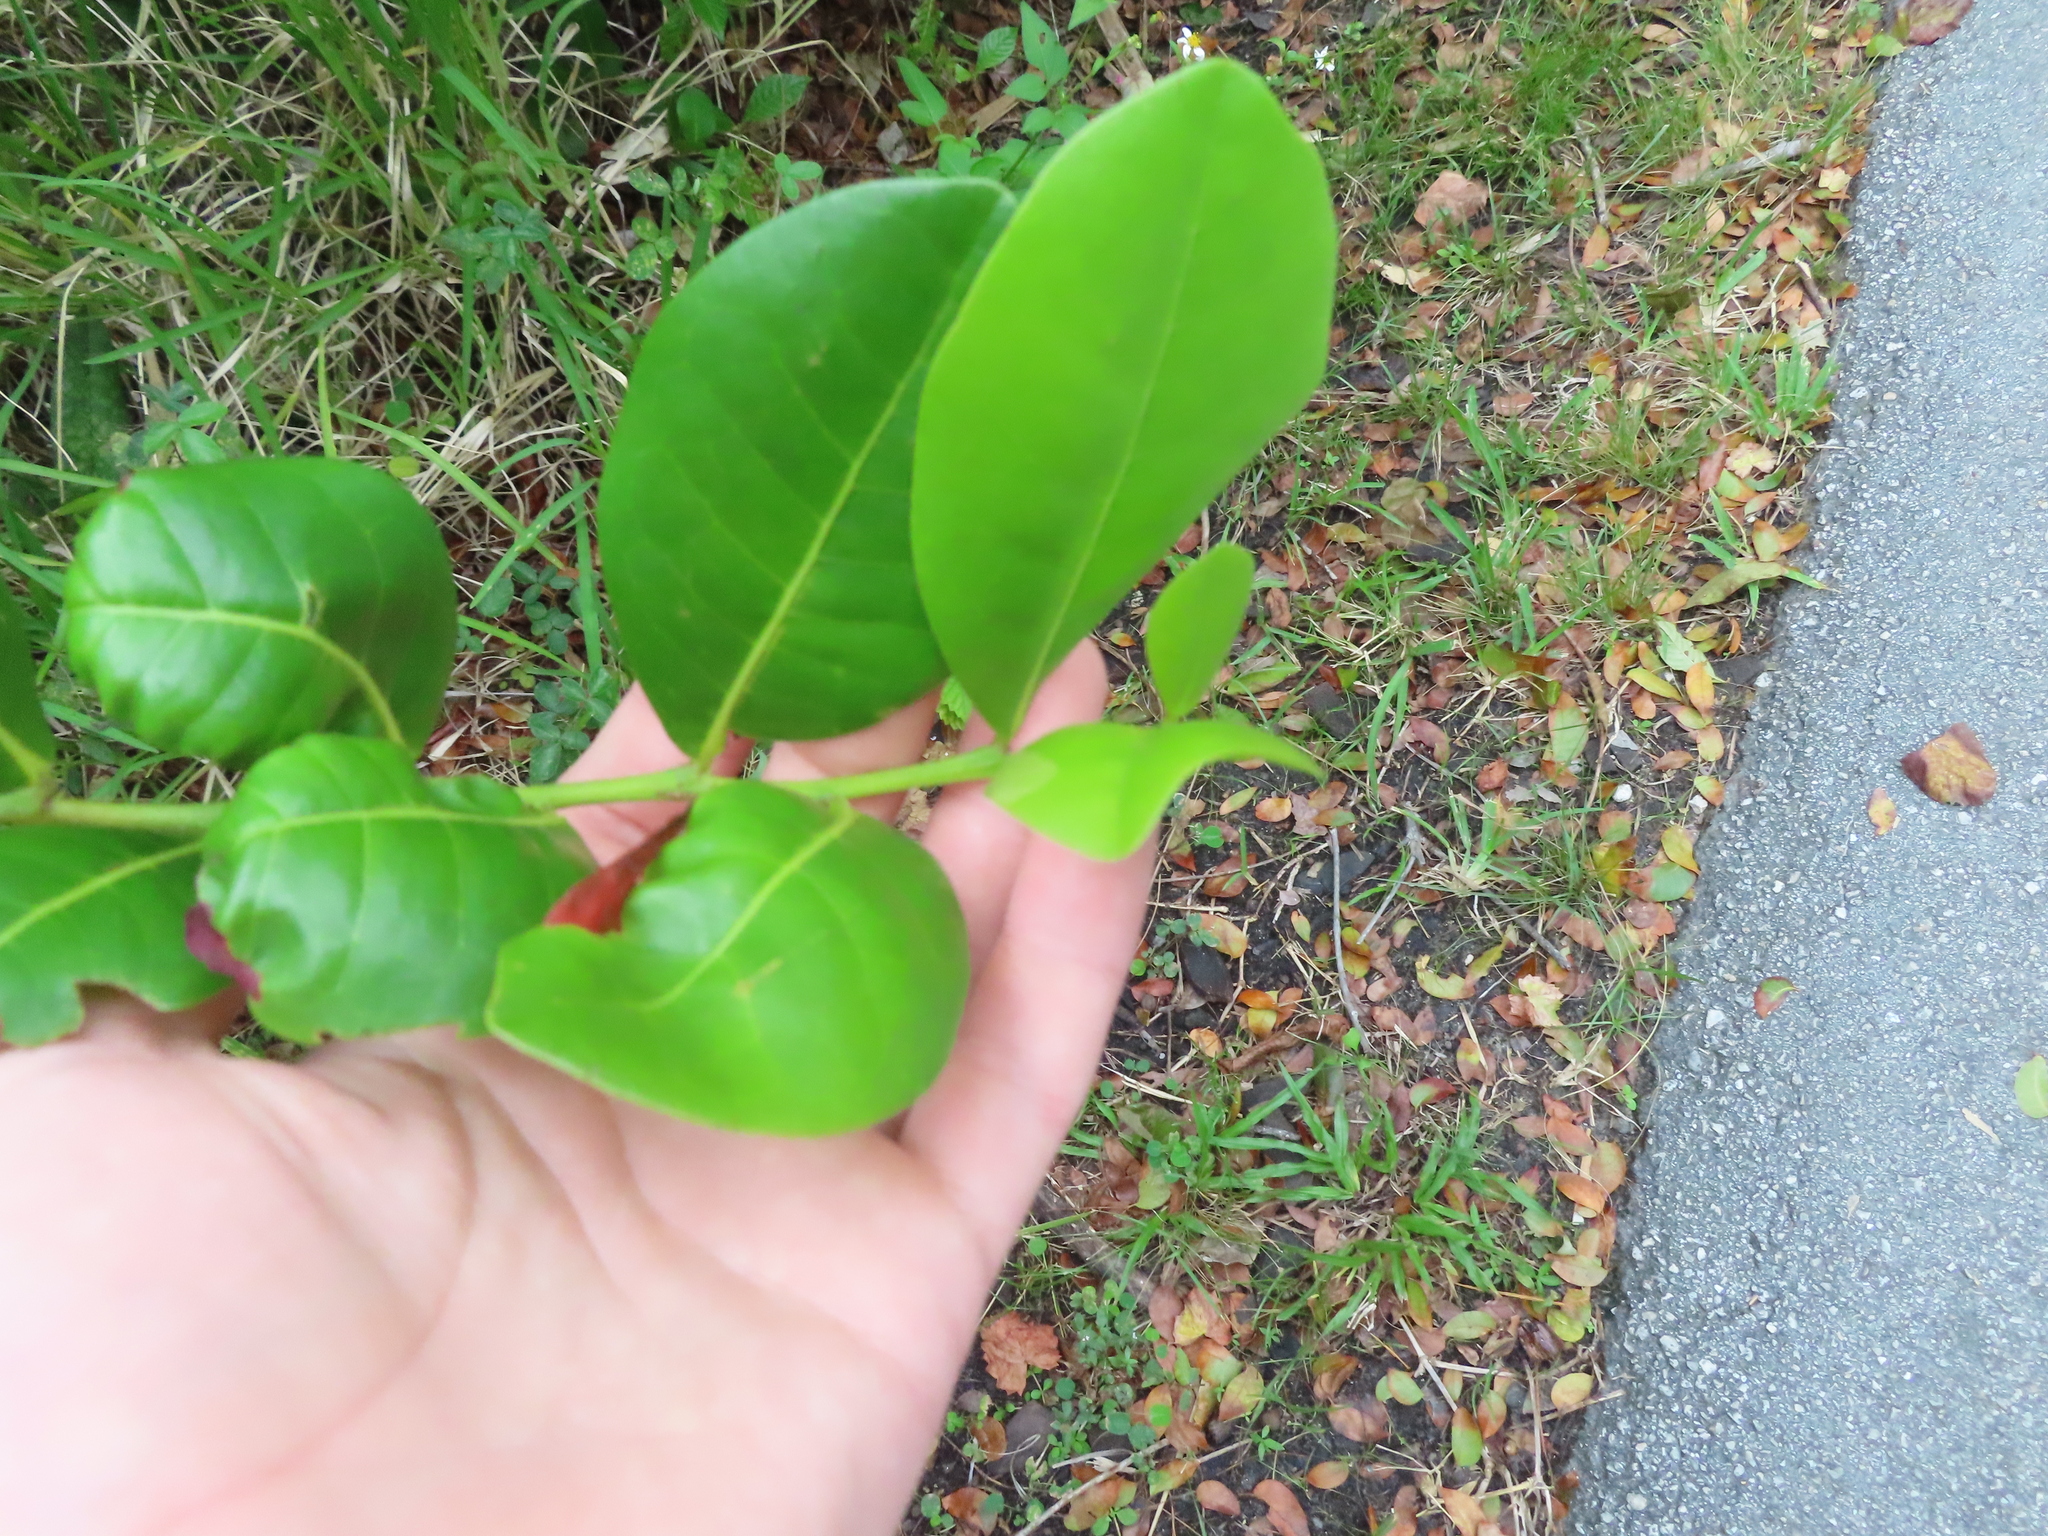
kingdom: Plantae
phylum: Tracheophyta
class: Magnoliopsida
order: Malpighiales
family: Chrysobalanaceae
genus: Chrysobalanus
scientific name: Chrysobalanus icaco
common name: Coco plum
